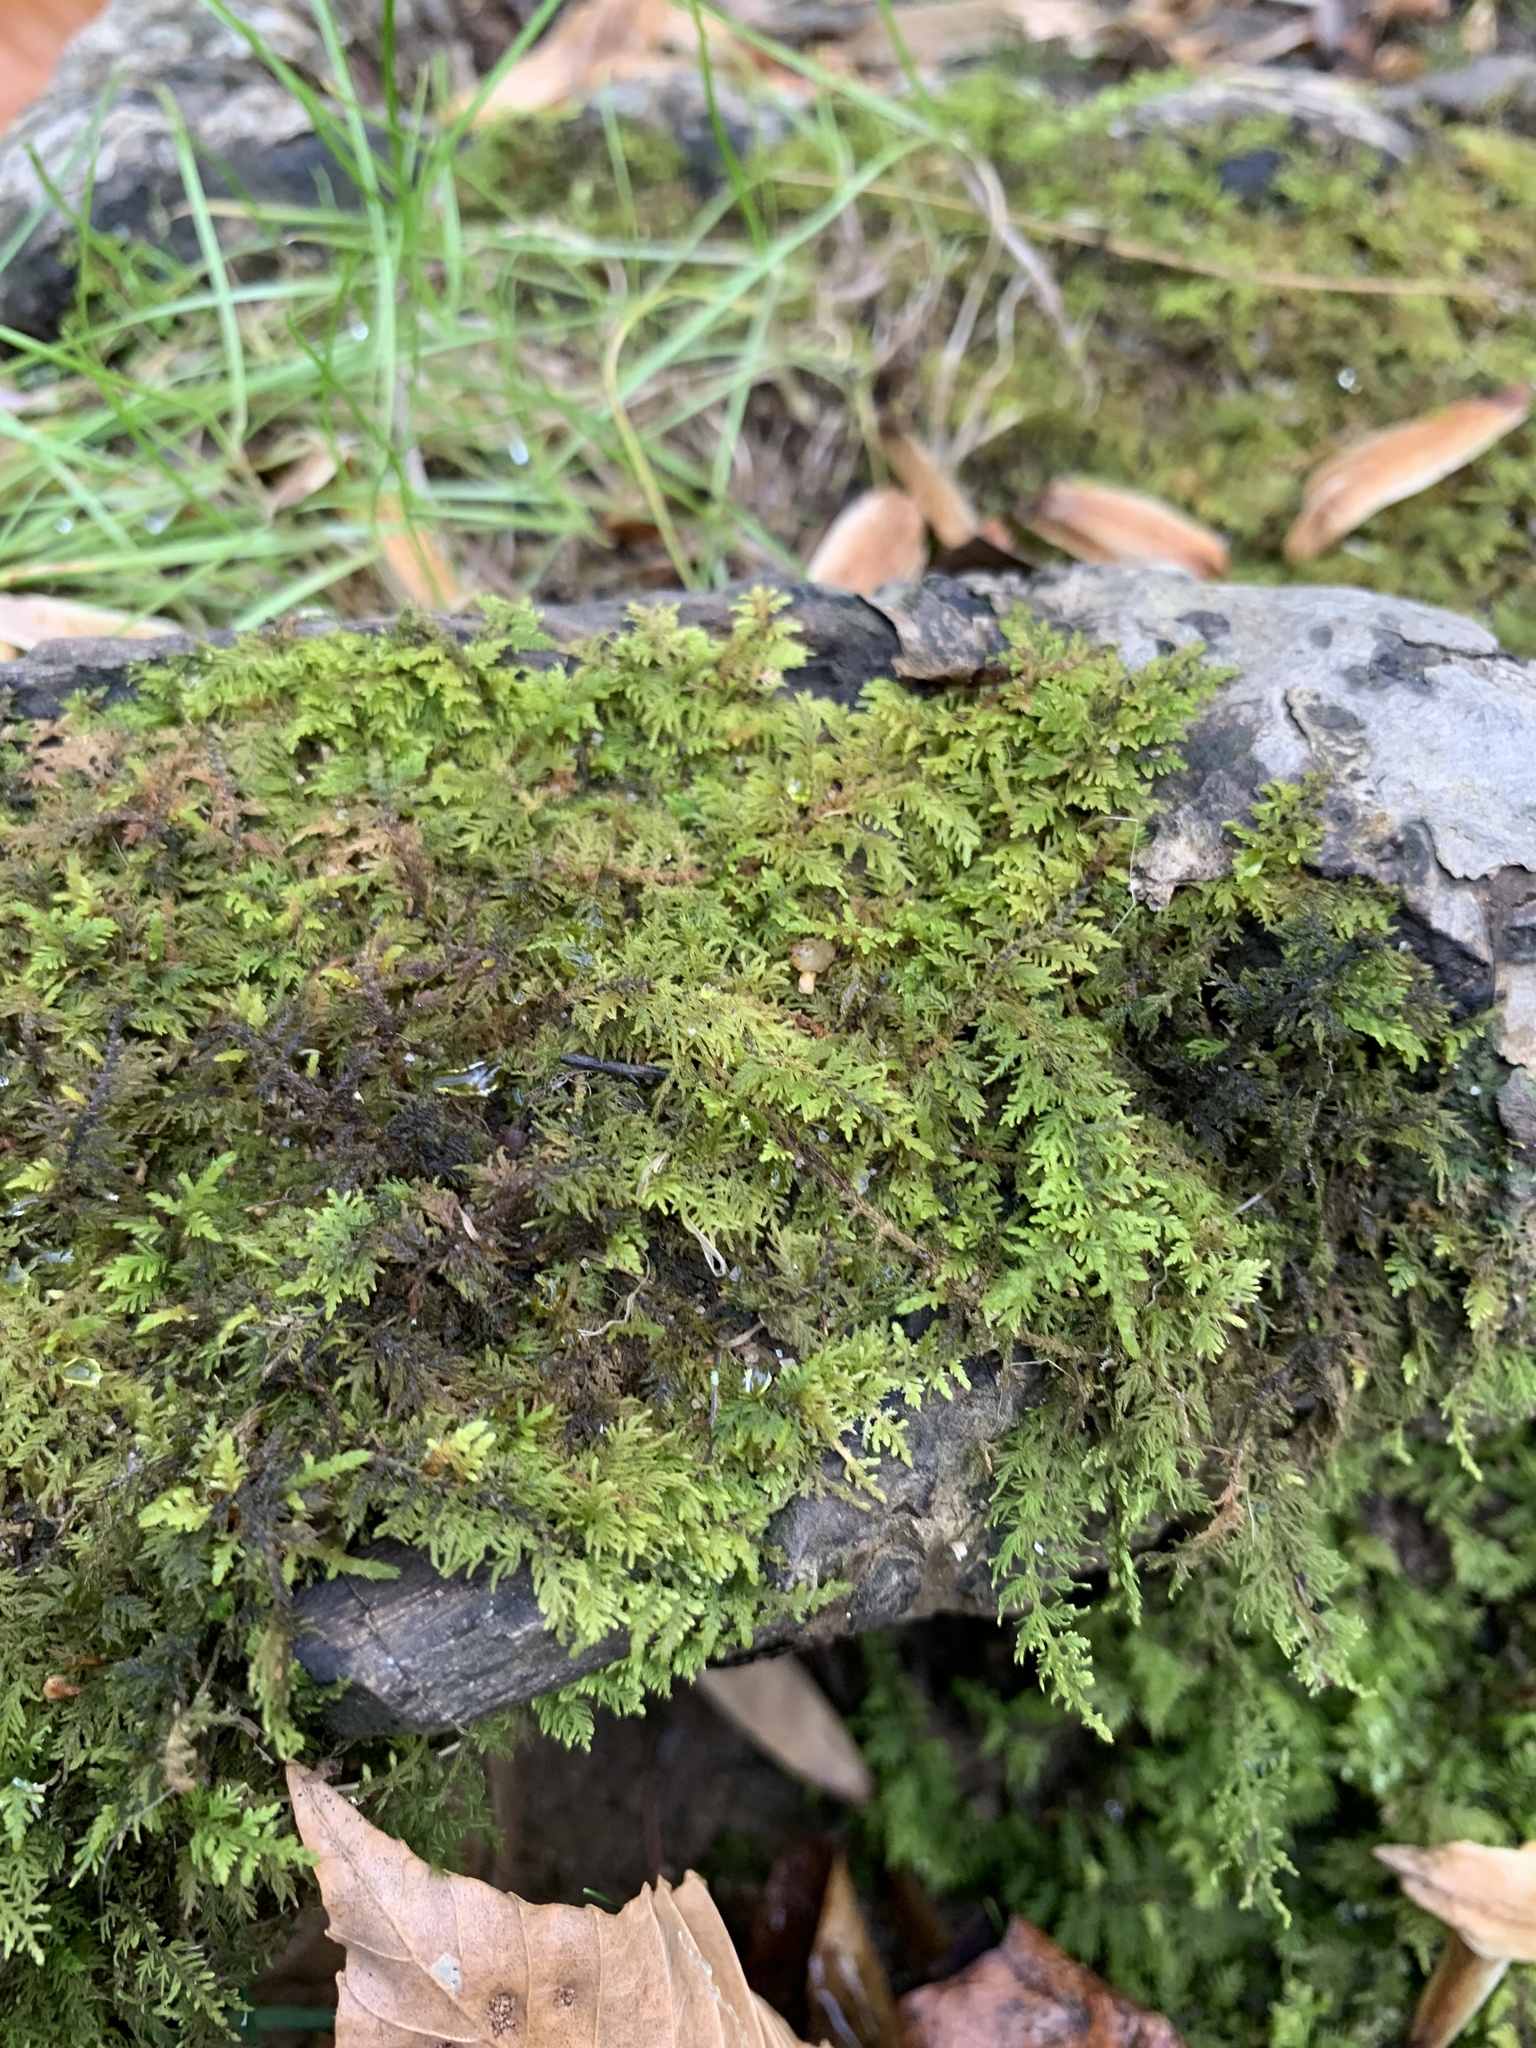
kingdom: Plantae
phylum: Bryophyta
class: Bryopsida
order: Hypnales
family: Thuidiaceae
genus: Thuidium
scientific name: Thuidium delicatulum
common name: Delicate fern moss
